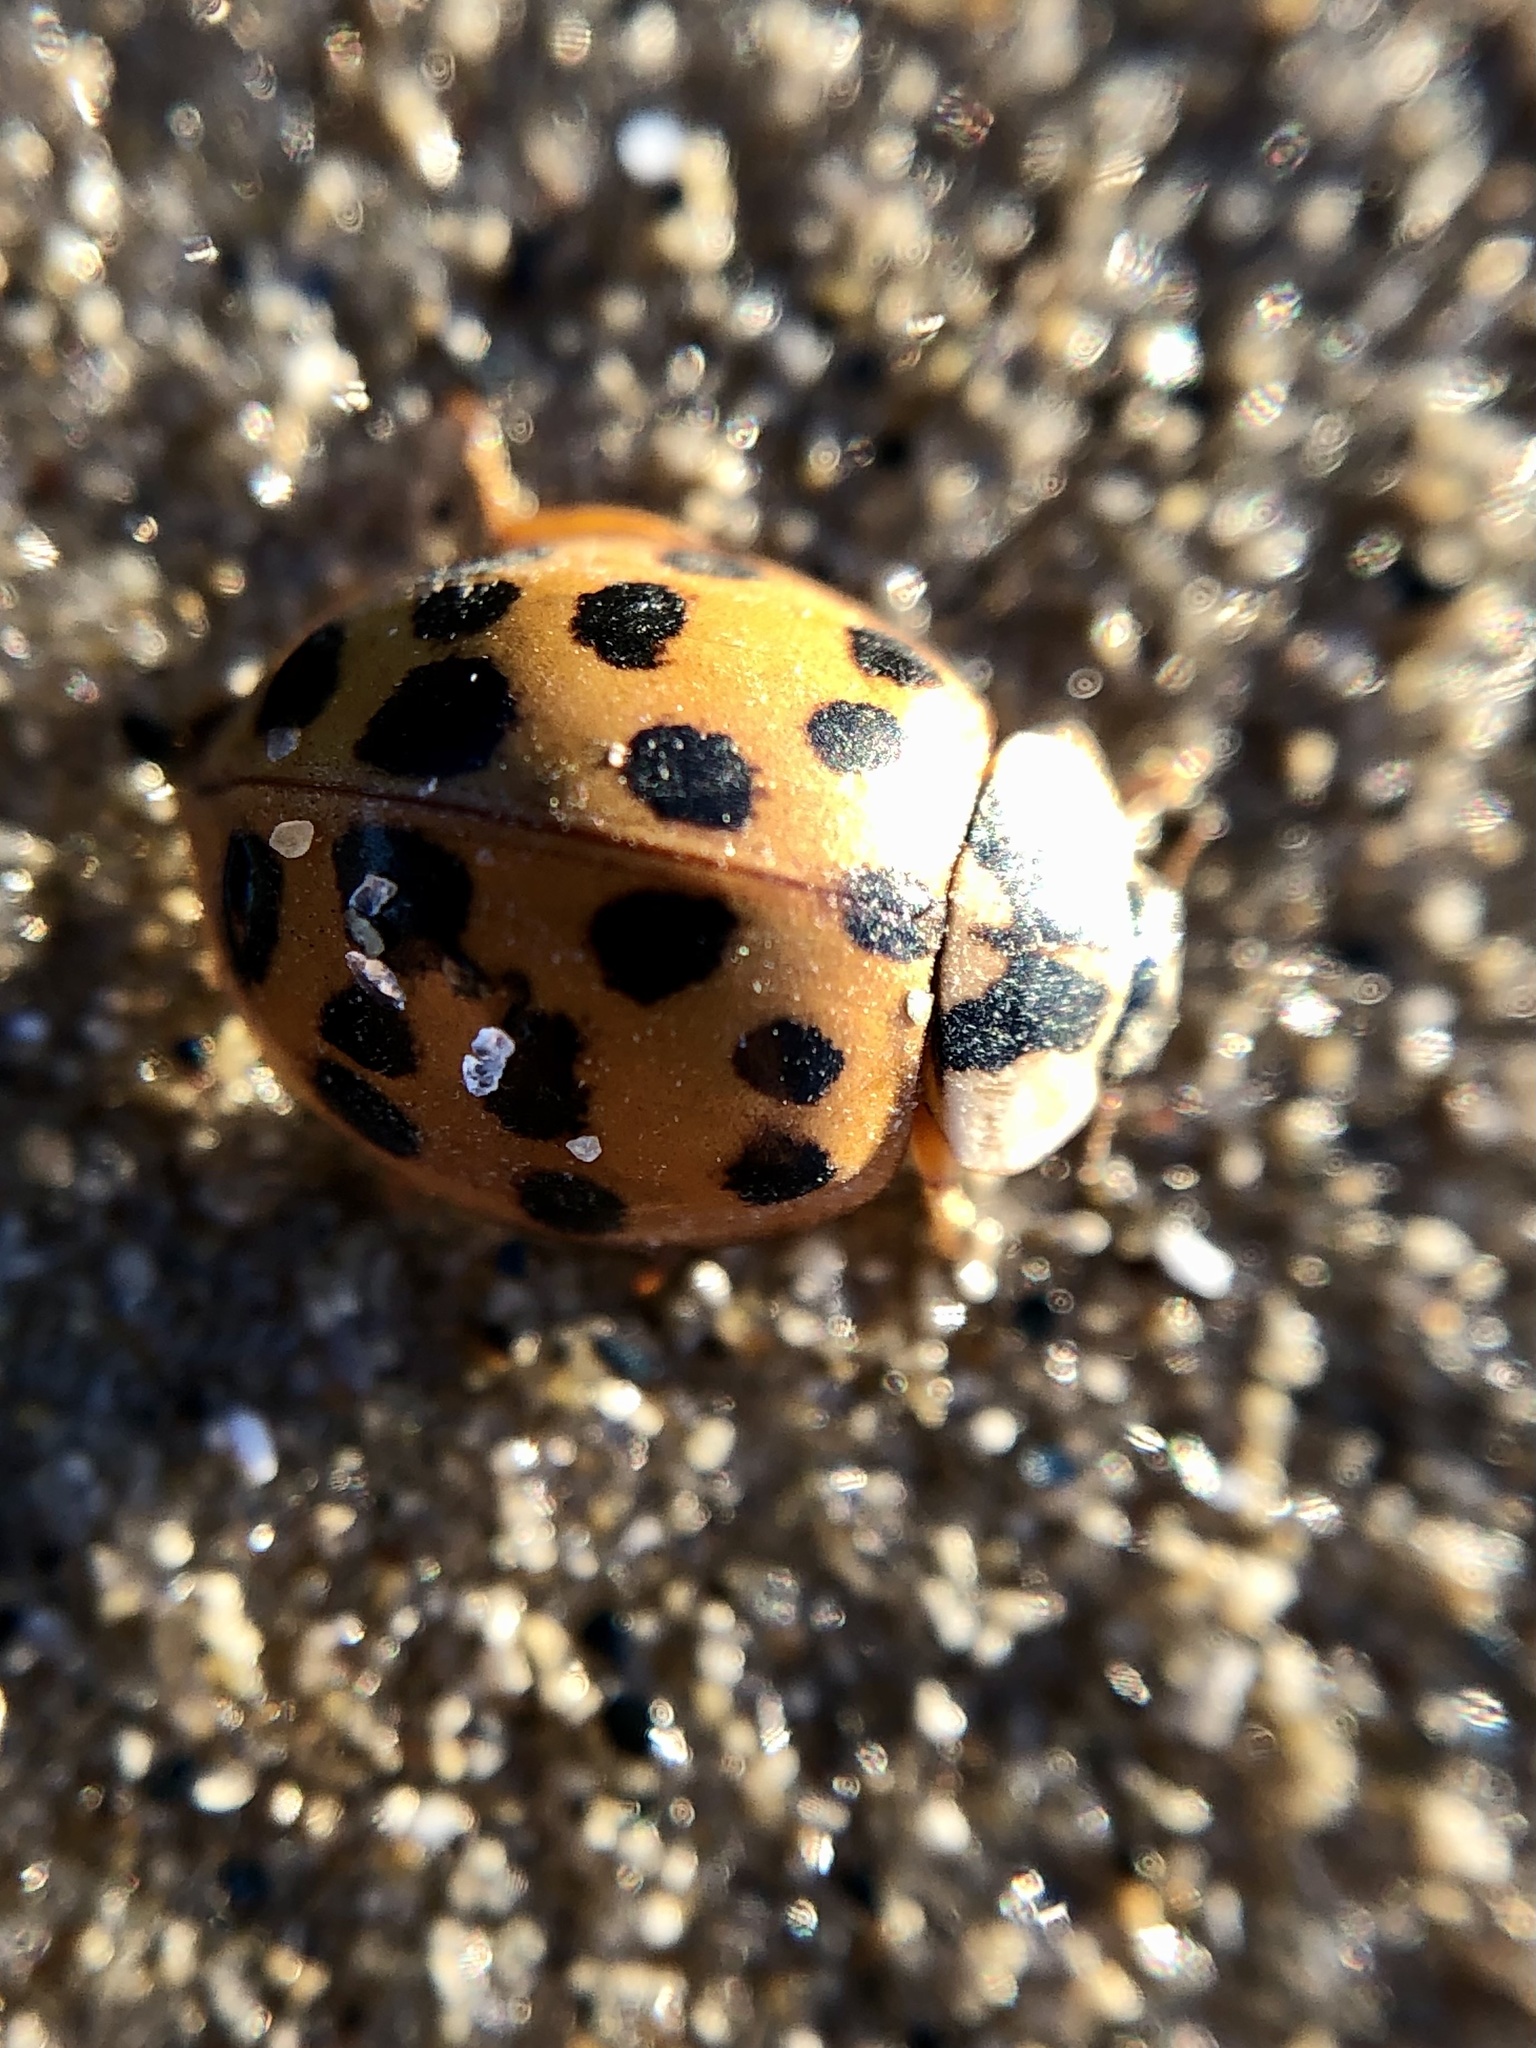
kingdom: Animalia
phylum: Arthropoda
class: Insecta
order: Coleoptera
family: Coccinellidae
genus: Harmonia
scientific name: Harmonia axyridis
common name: Harlequin ladybird
